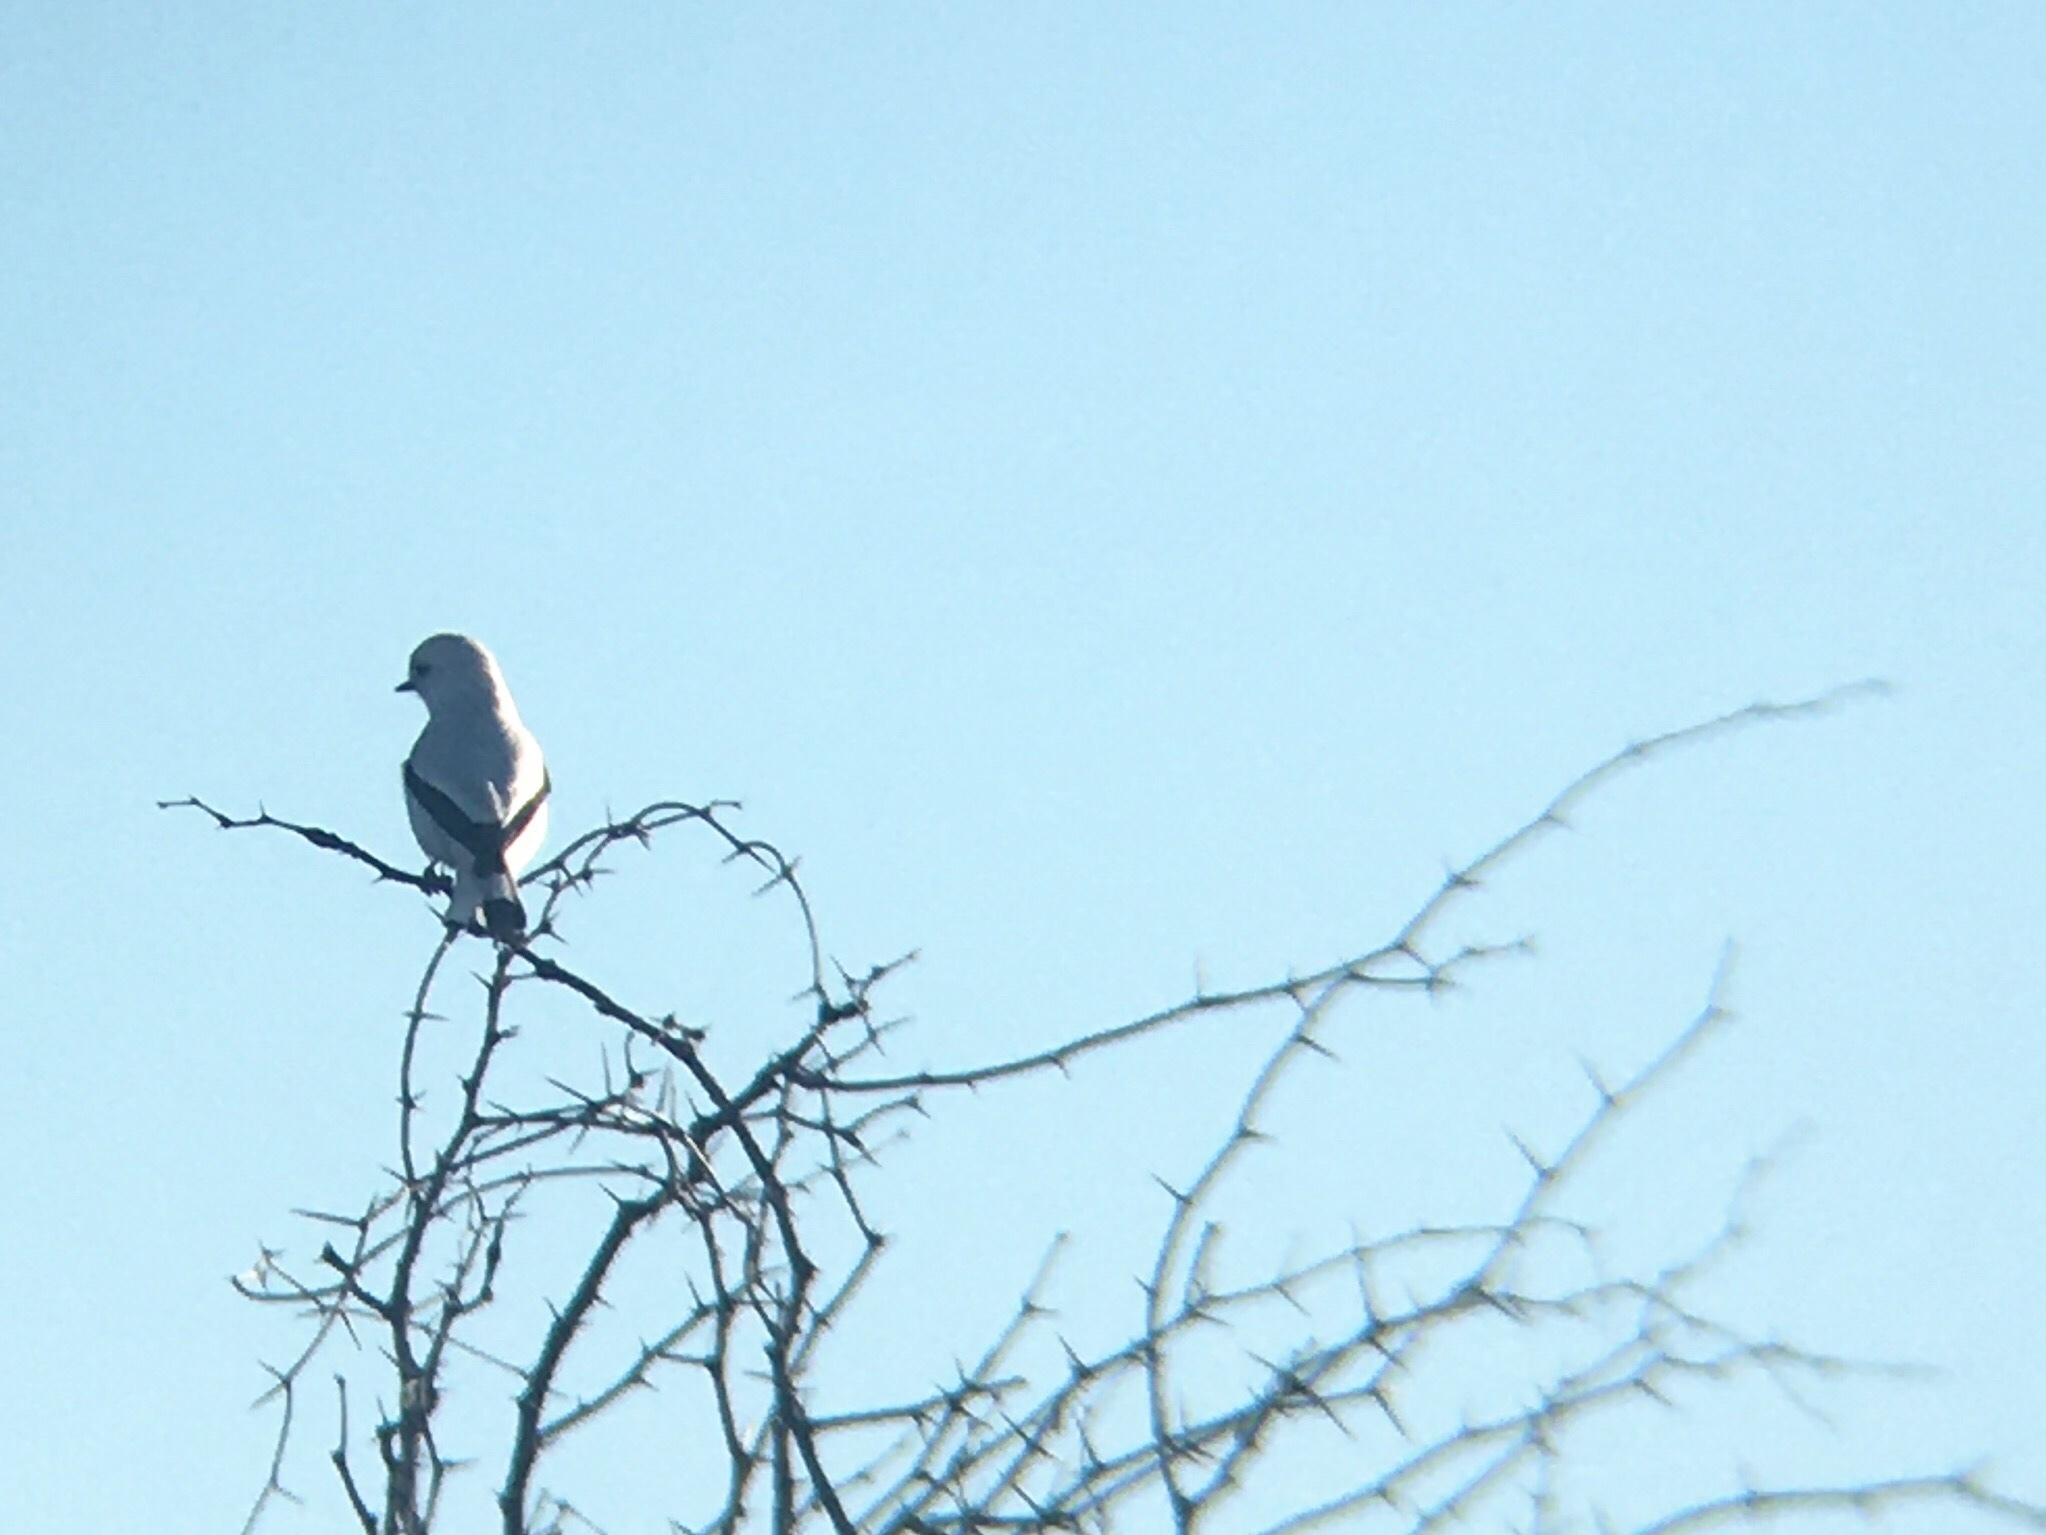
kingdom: Animalia
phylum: Chordata
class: Aves
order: Passeriformes
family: Tyrannidae
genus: Xolmis
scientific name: Xolmis irupero
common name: White monjita
